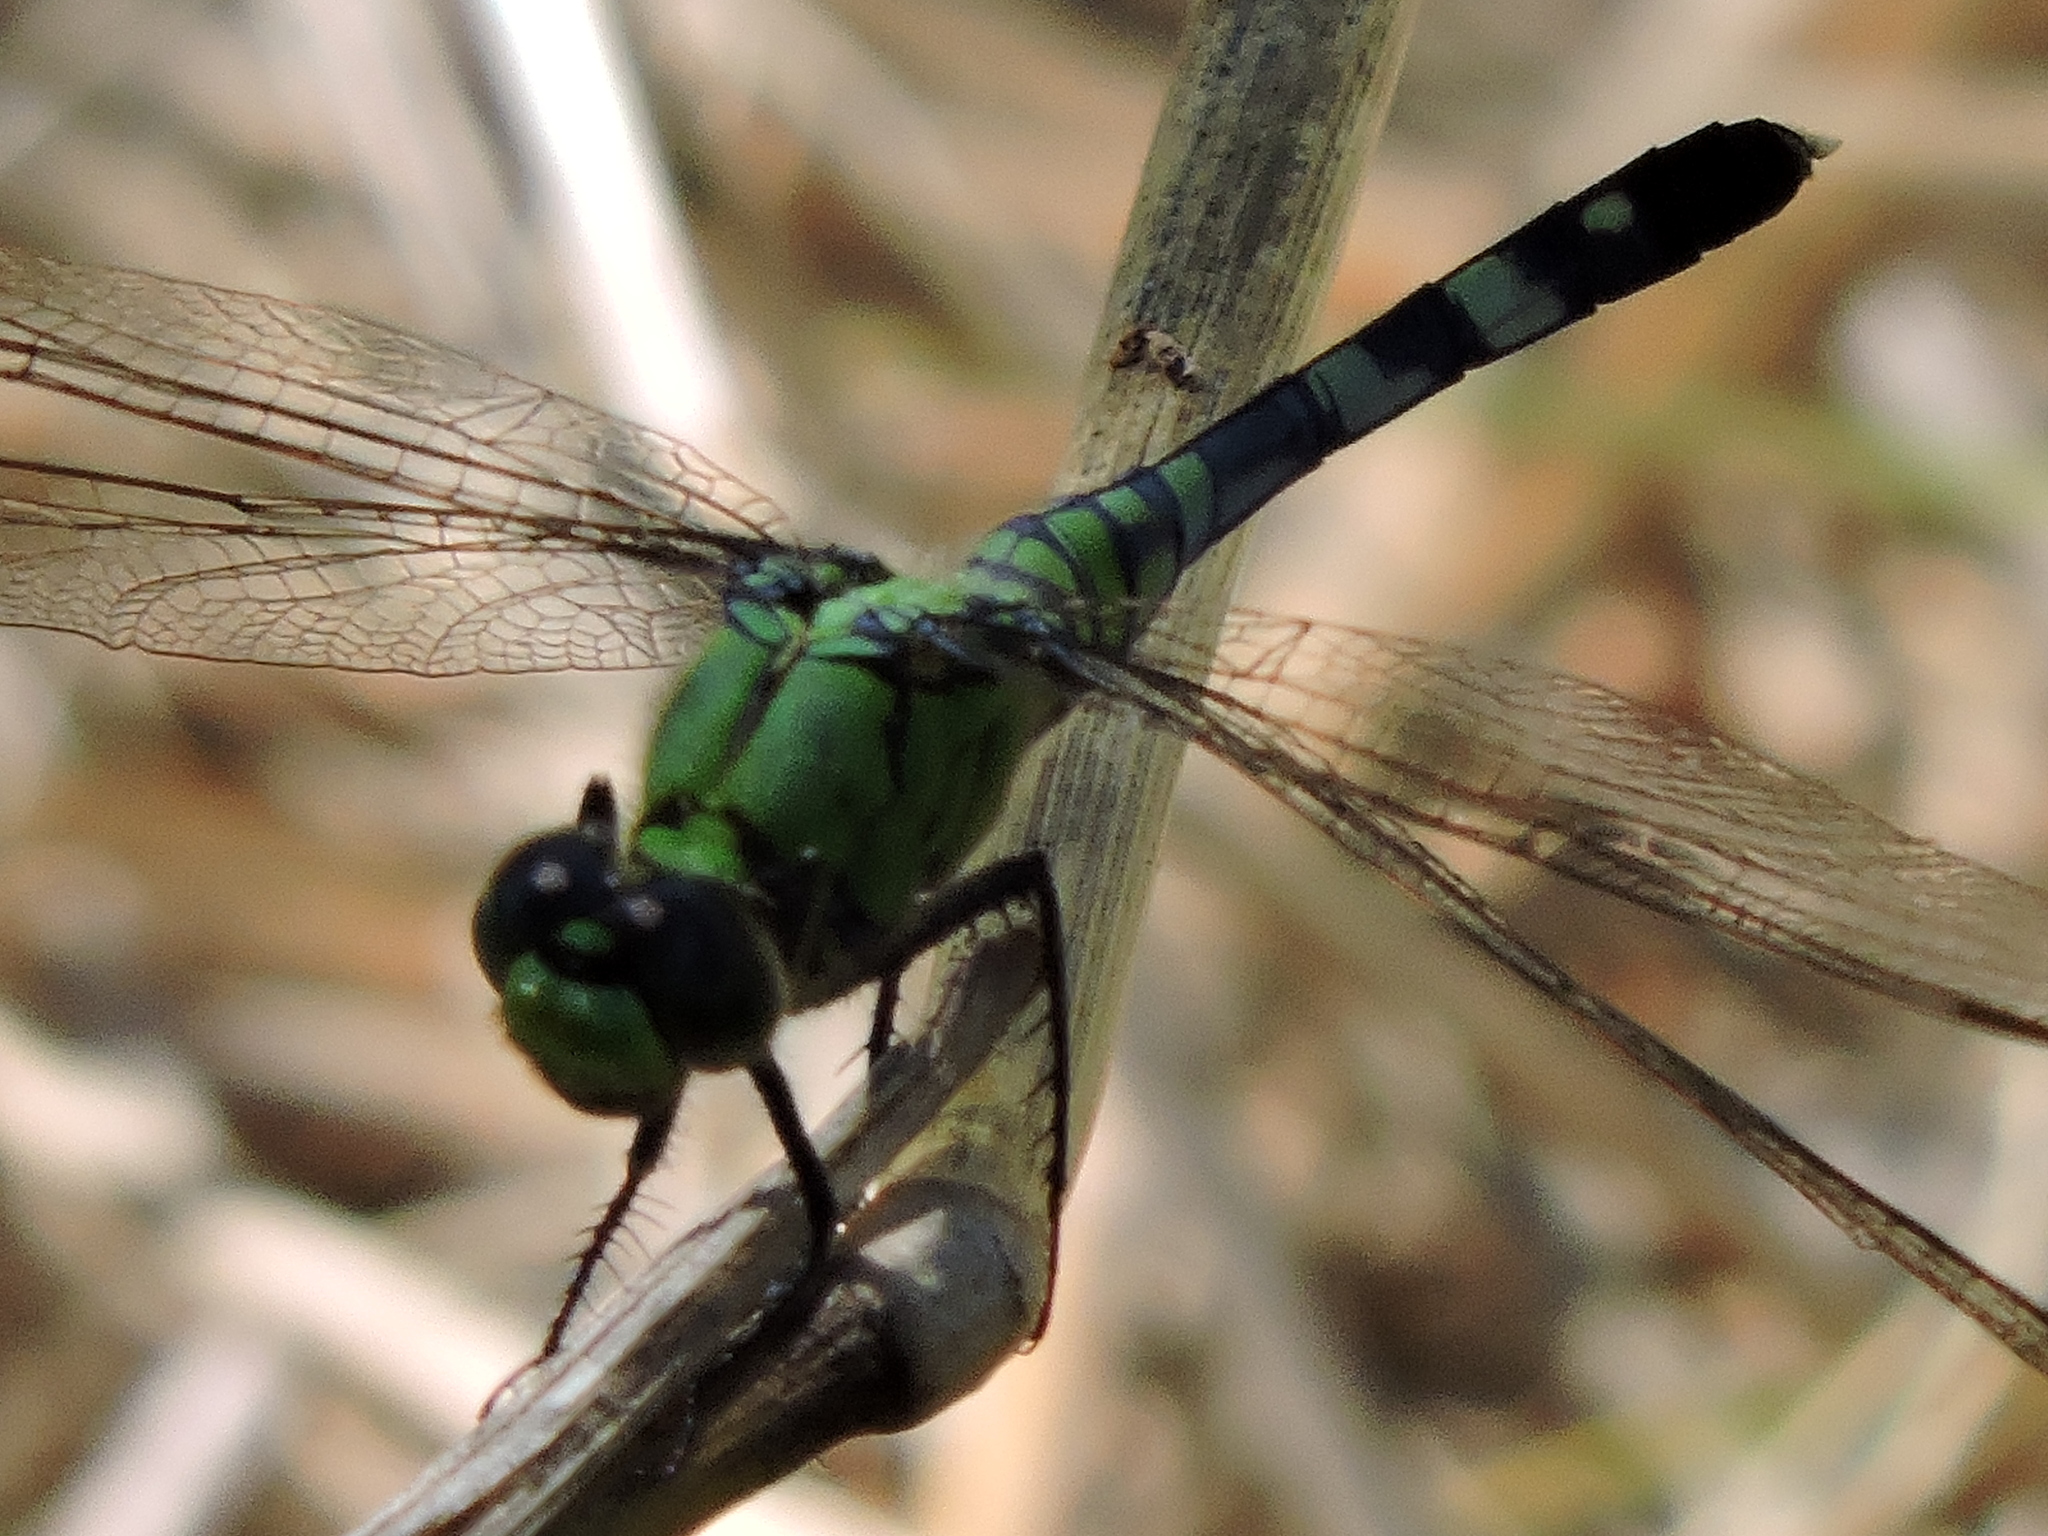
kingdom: Animalia
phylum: Arthropoda
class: Insecta
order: Odonata
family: Libellulidae
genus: Erythemis
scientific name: Erythemis simplicicollis
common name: Eastern pondhawk
